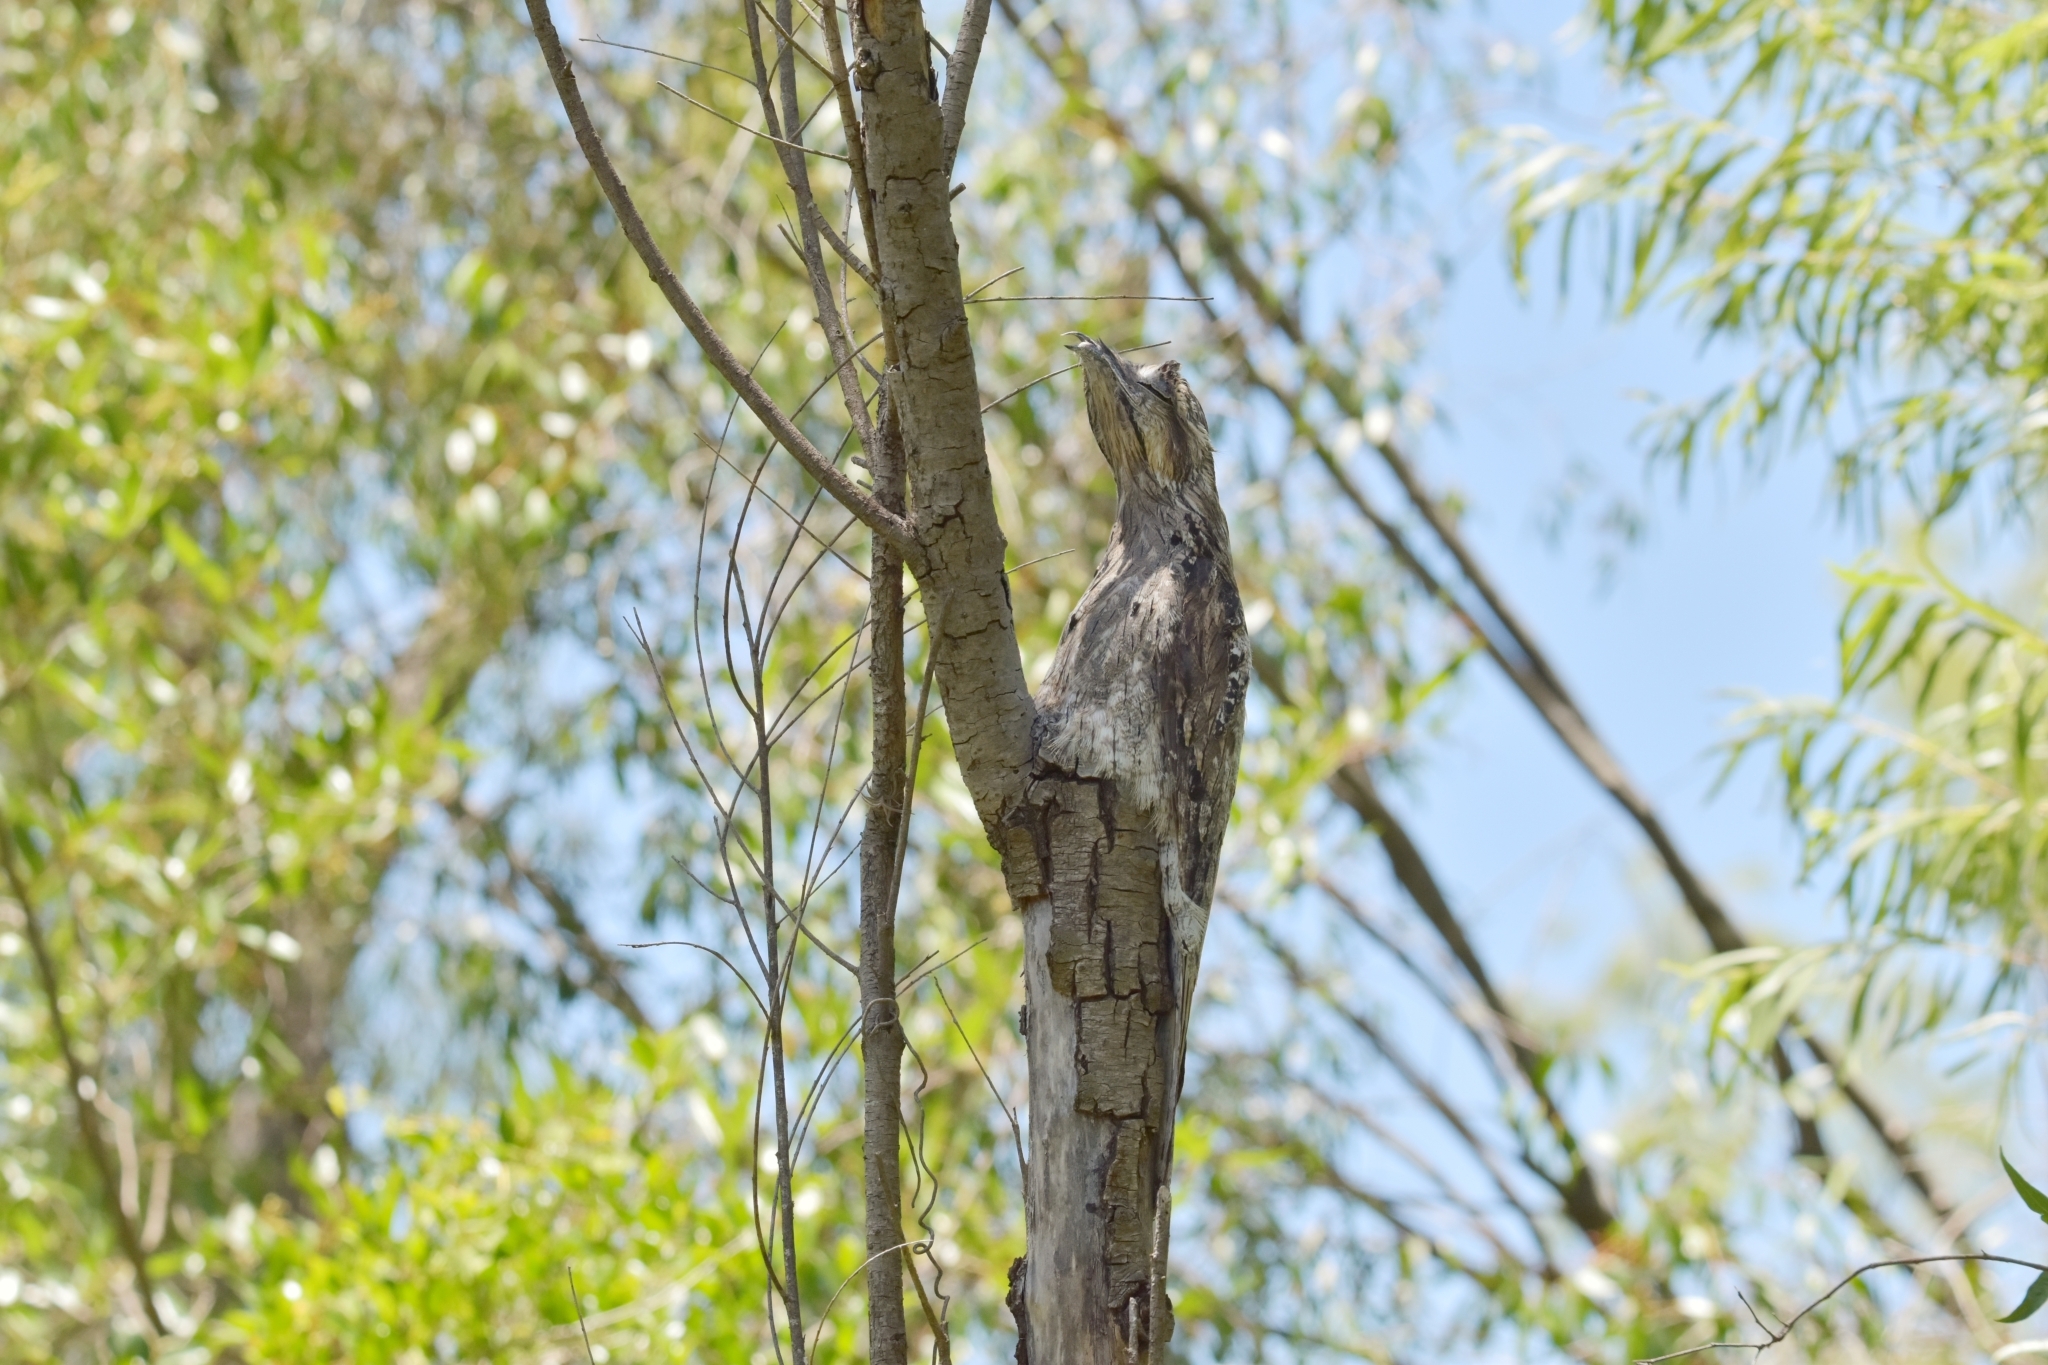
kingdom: Animalia
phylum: Chordata
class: Aves
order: Nyctibiiformes
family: Nyctibiidae
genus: Nyctibius
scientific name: Nyctibius griseus
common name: Common potoo
